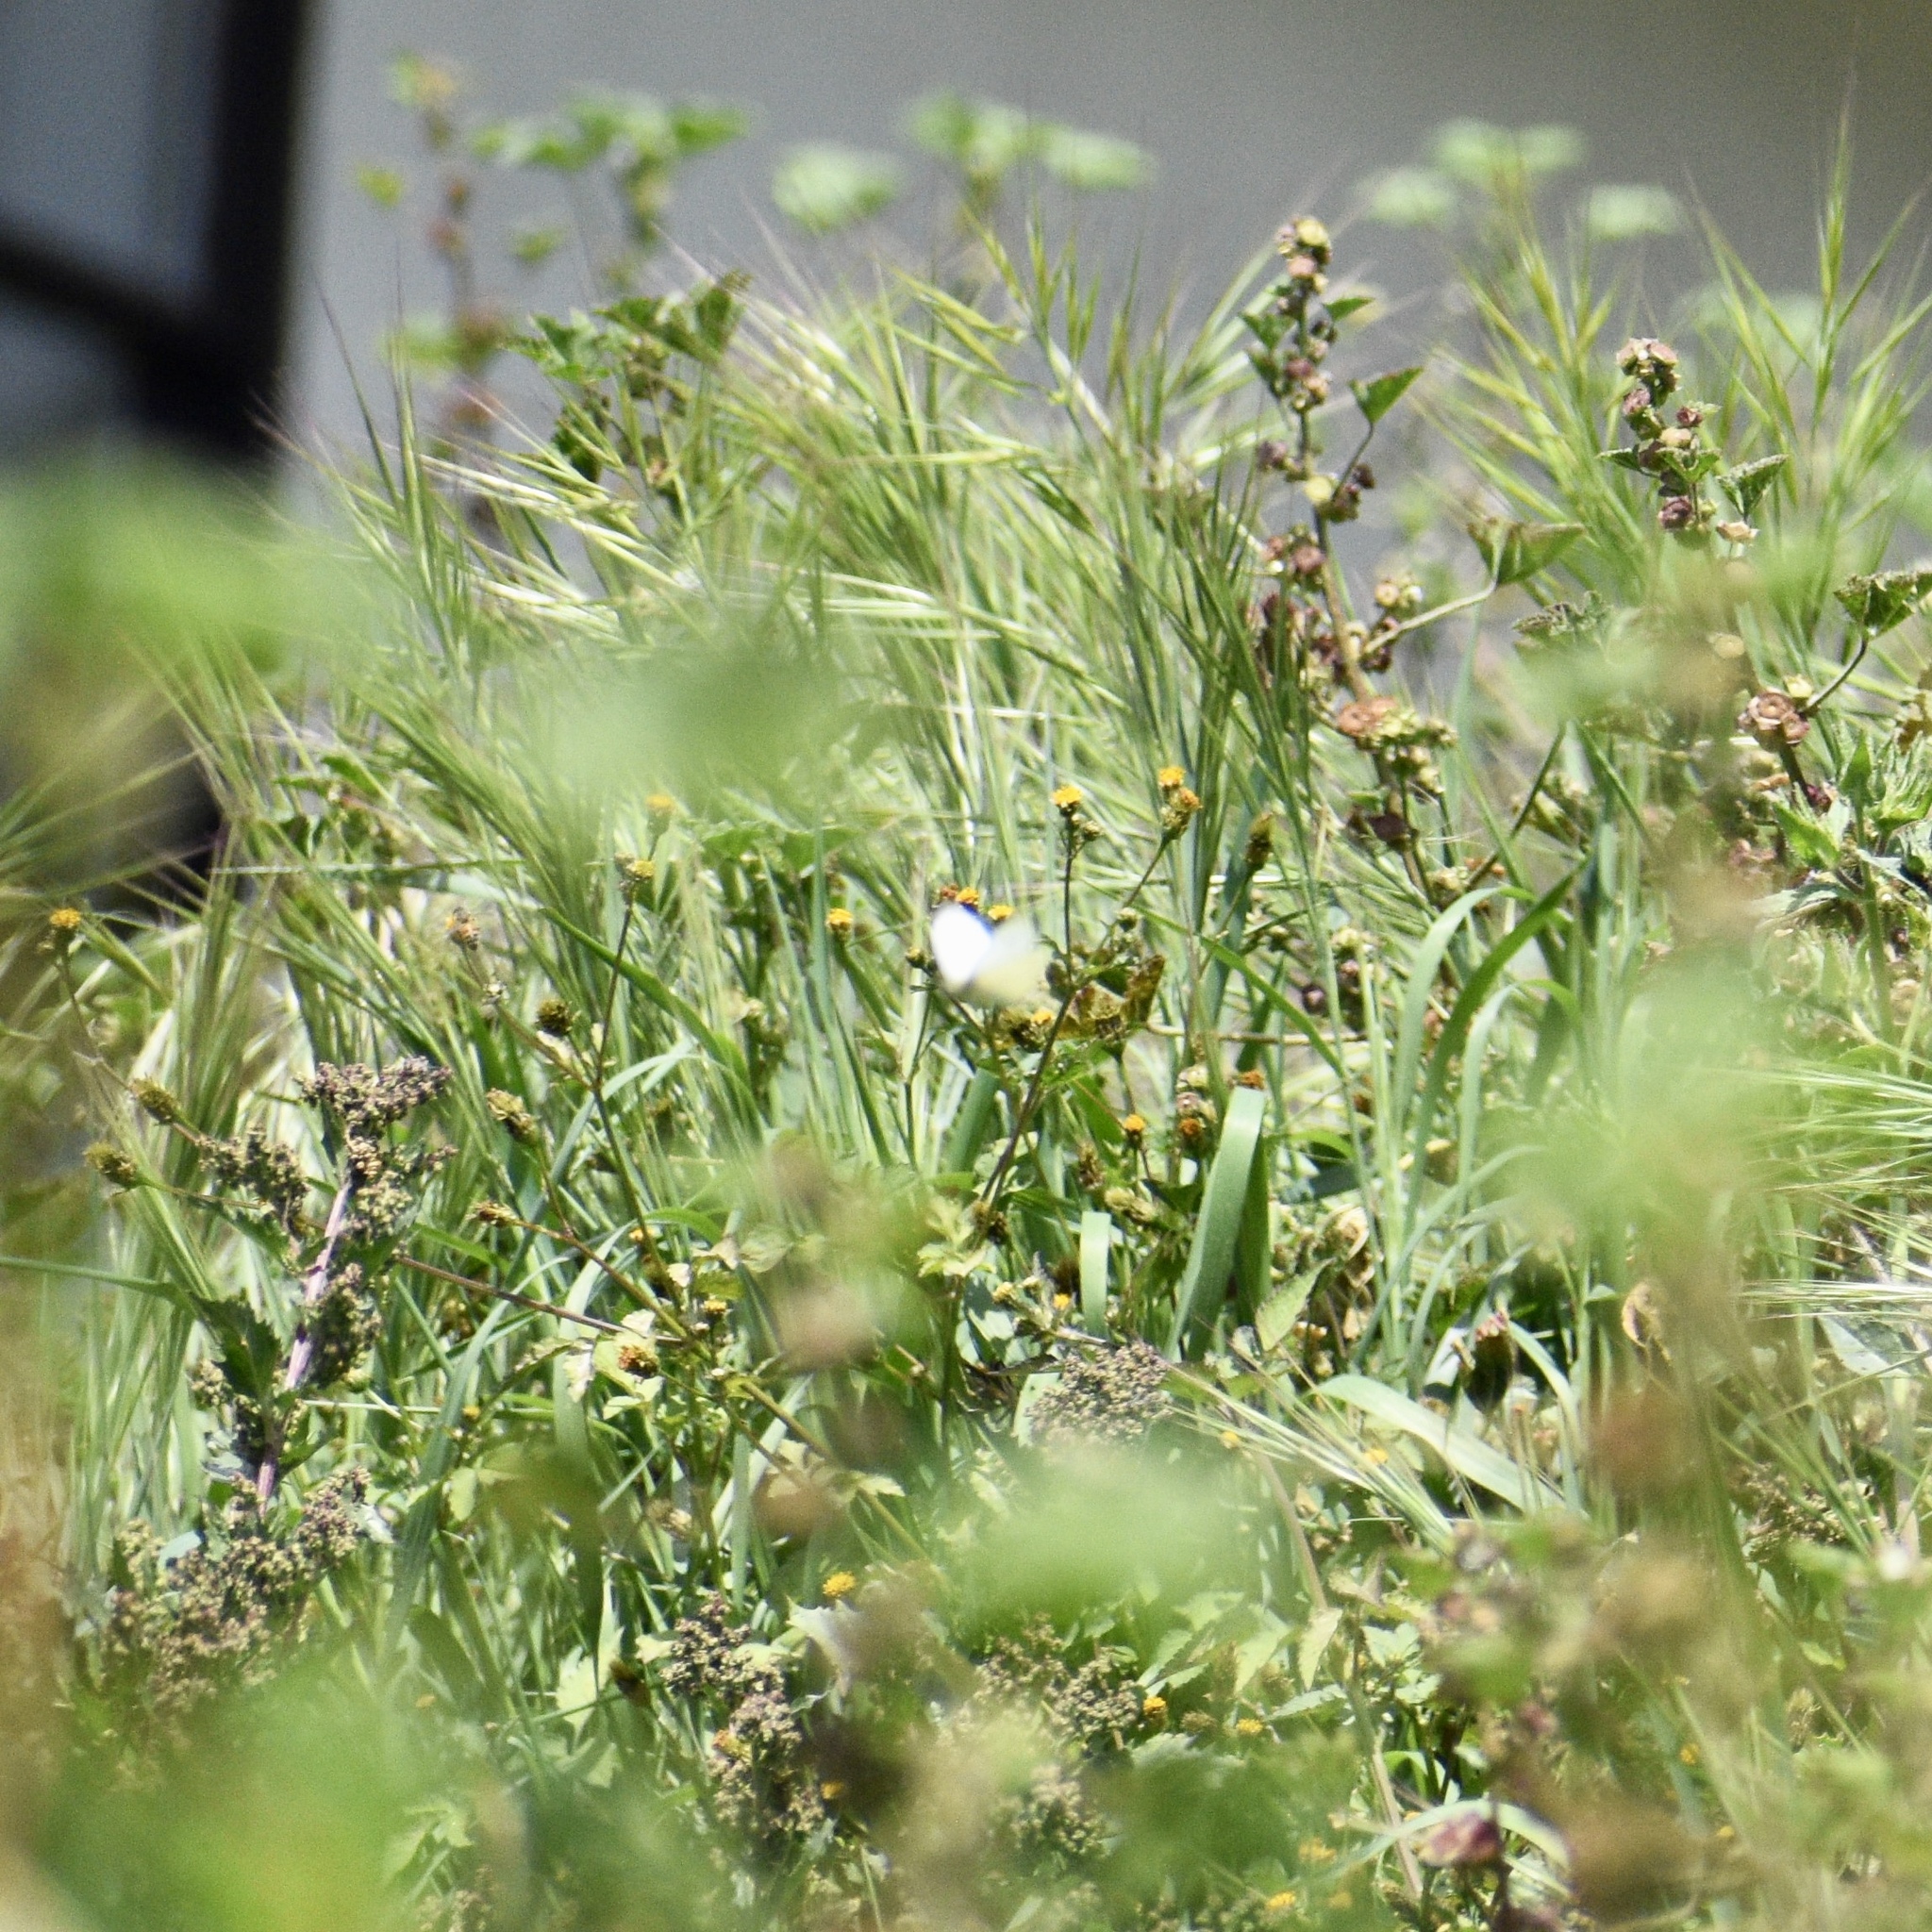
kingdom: Animalia
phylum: Arthropoda
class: Insecta
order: Lepidoptera
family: Pieridae
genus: Pieris
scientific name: Pieris rapae
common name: Small white
